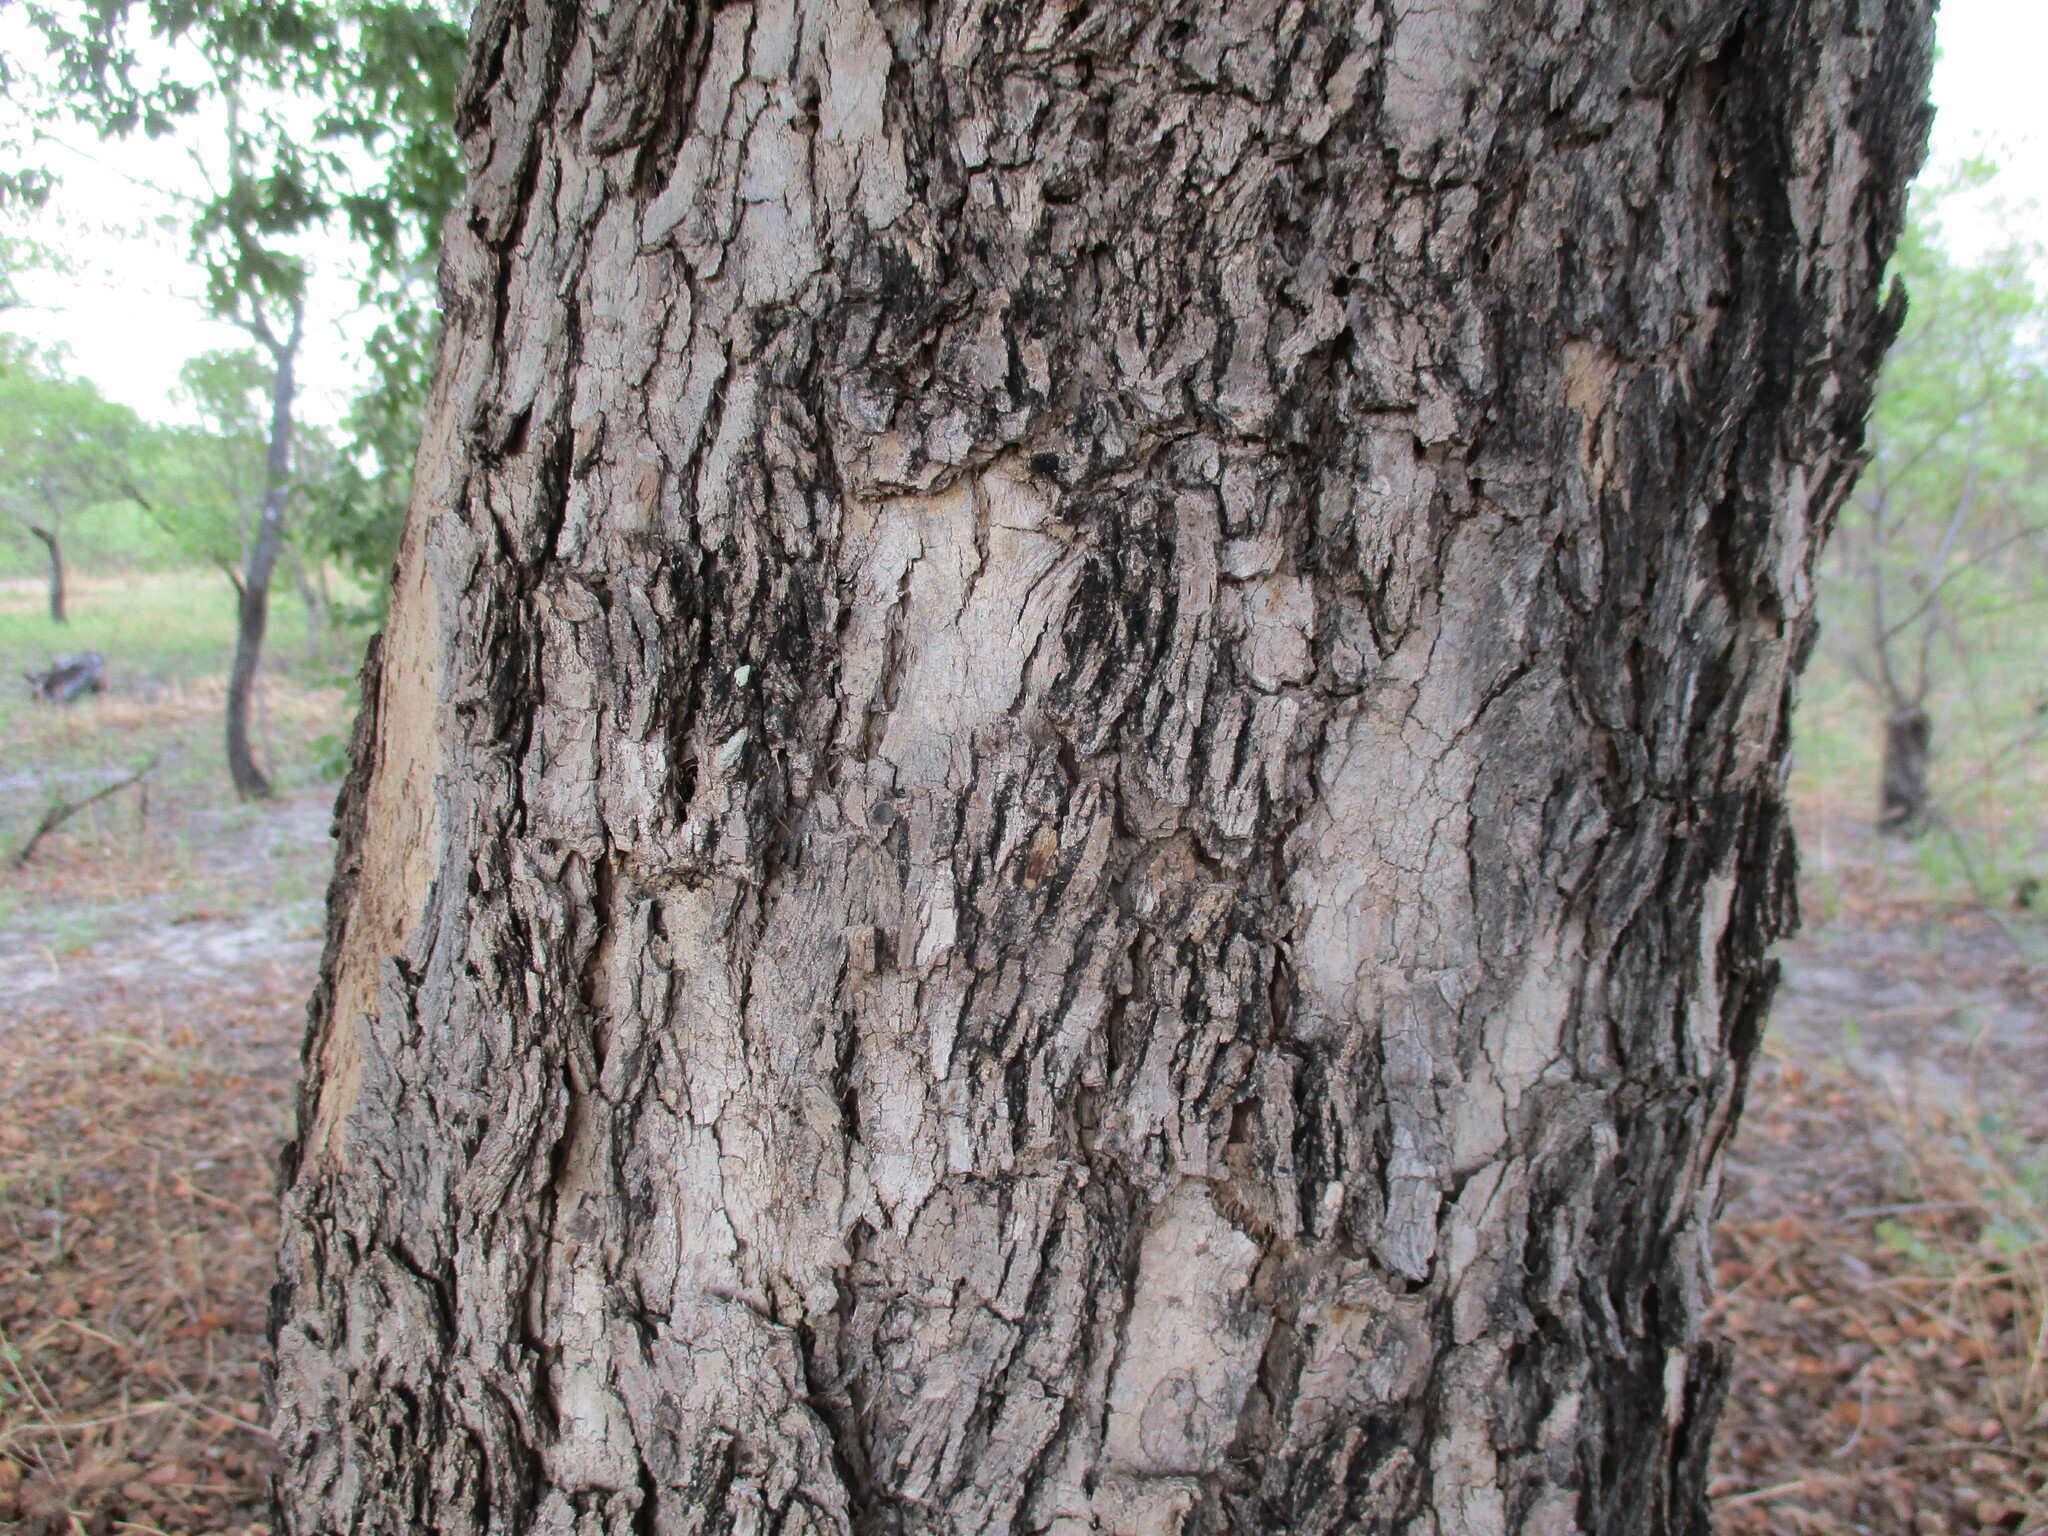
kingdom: Plantae
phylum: Tracheophyta
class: Magnoliopsida
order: Myrtales
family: Combretaceae
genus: Combretum
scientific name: Combretum collinum
